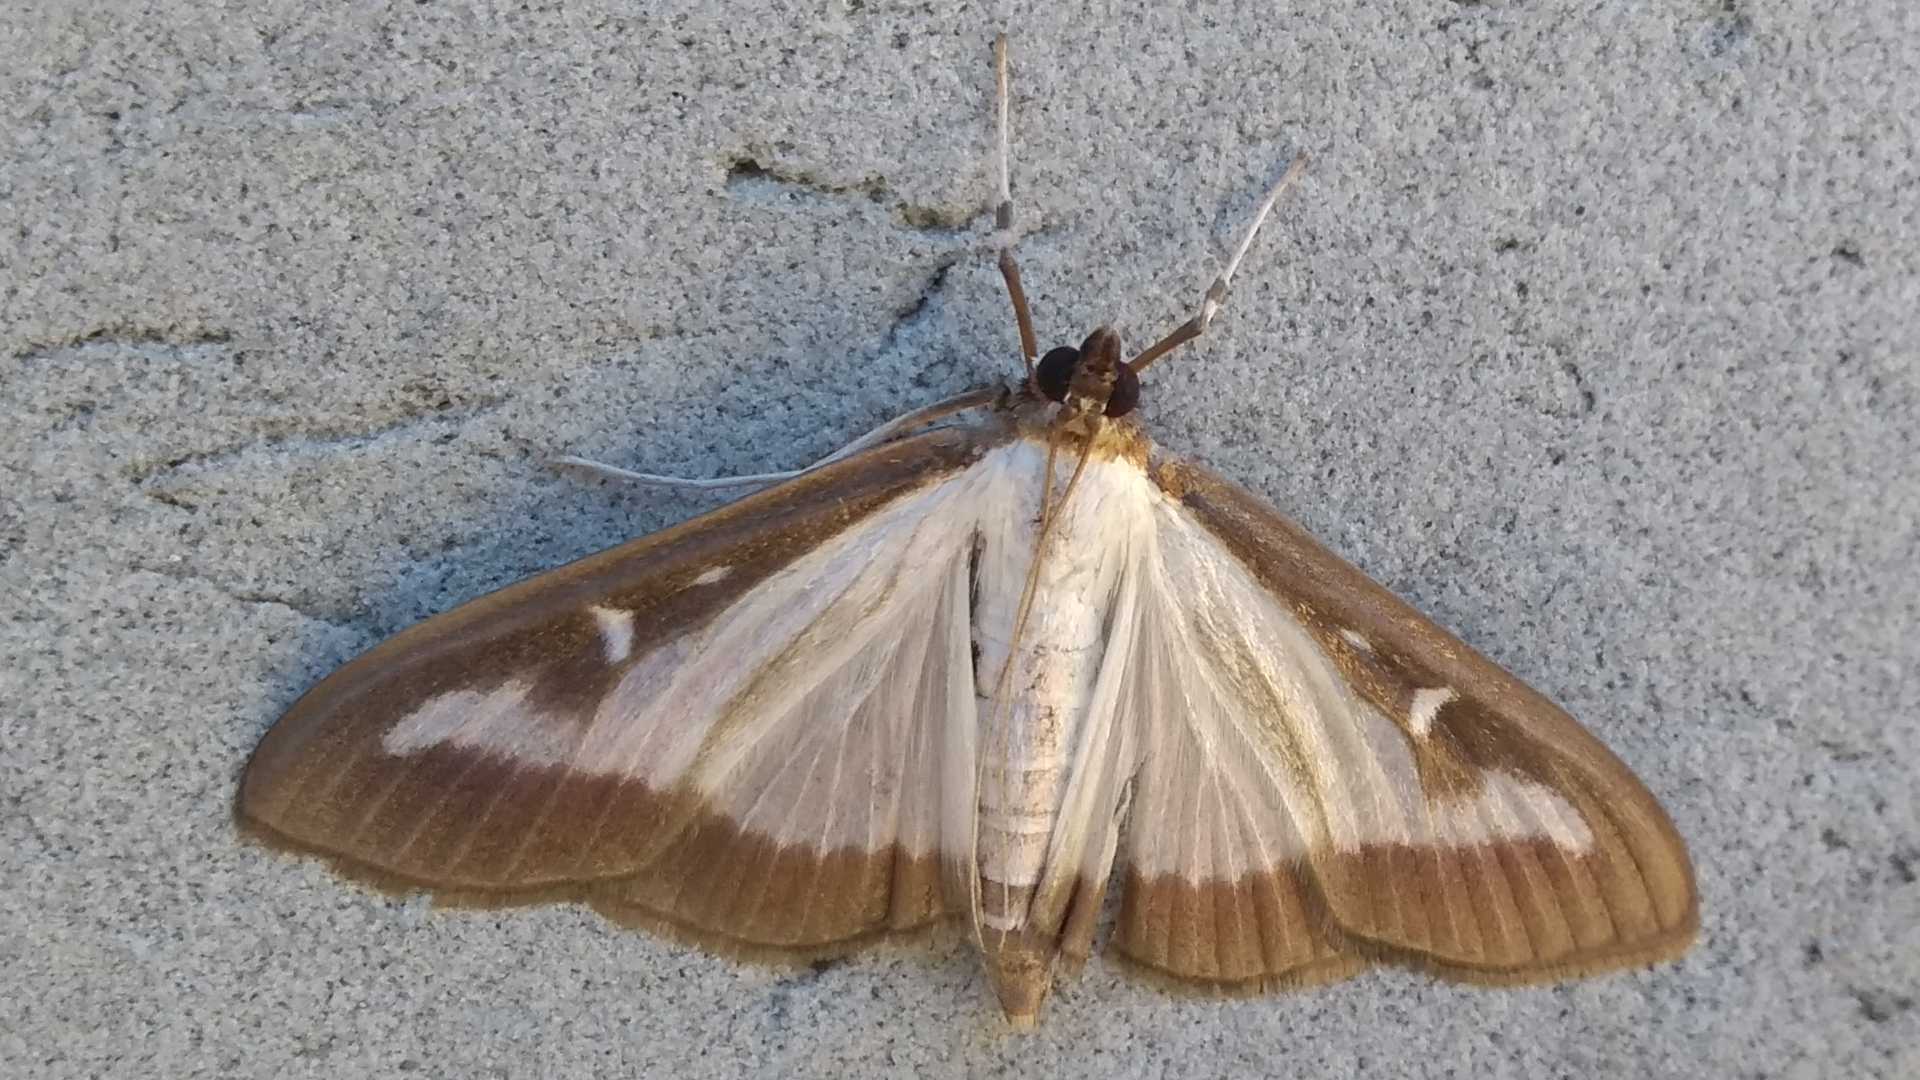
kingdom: Animalia
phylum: Arthropoda
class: Insecta
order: Lepidoptera
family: Crambidae
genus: Cydalima
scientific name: Cydalima perspectalis
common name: Box tree moth
